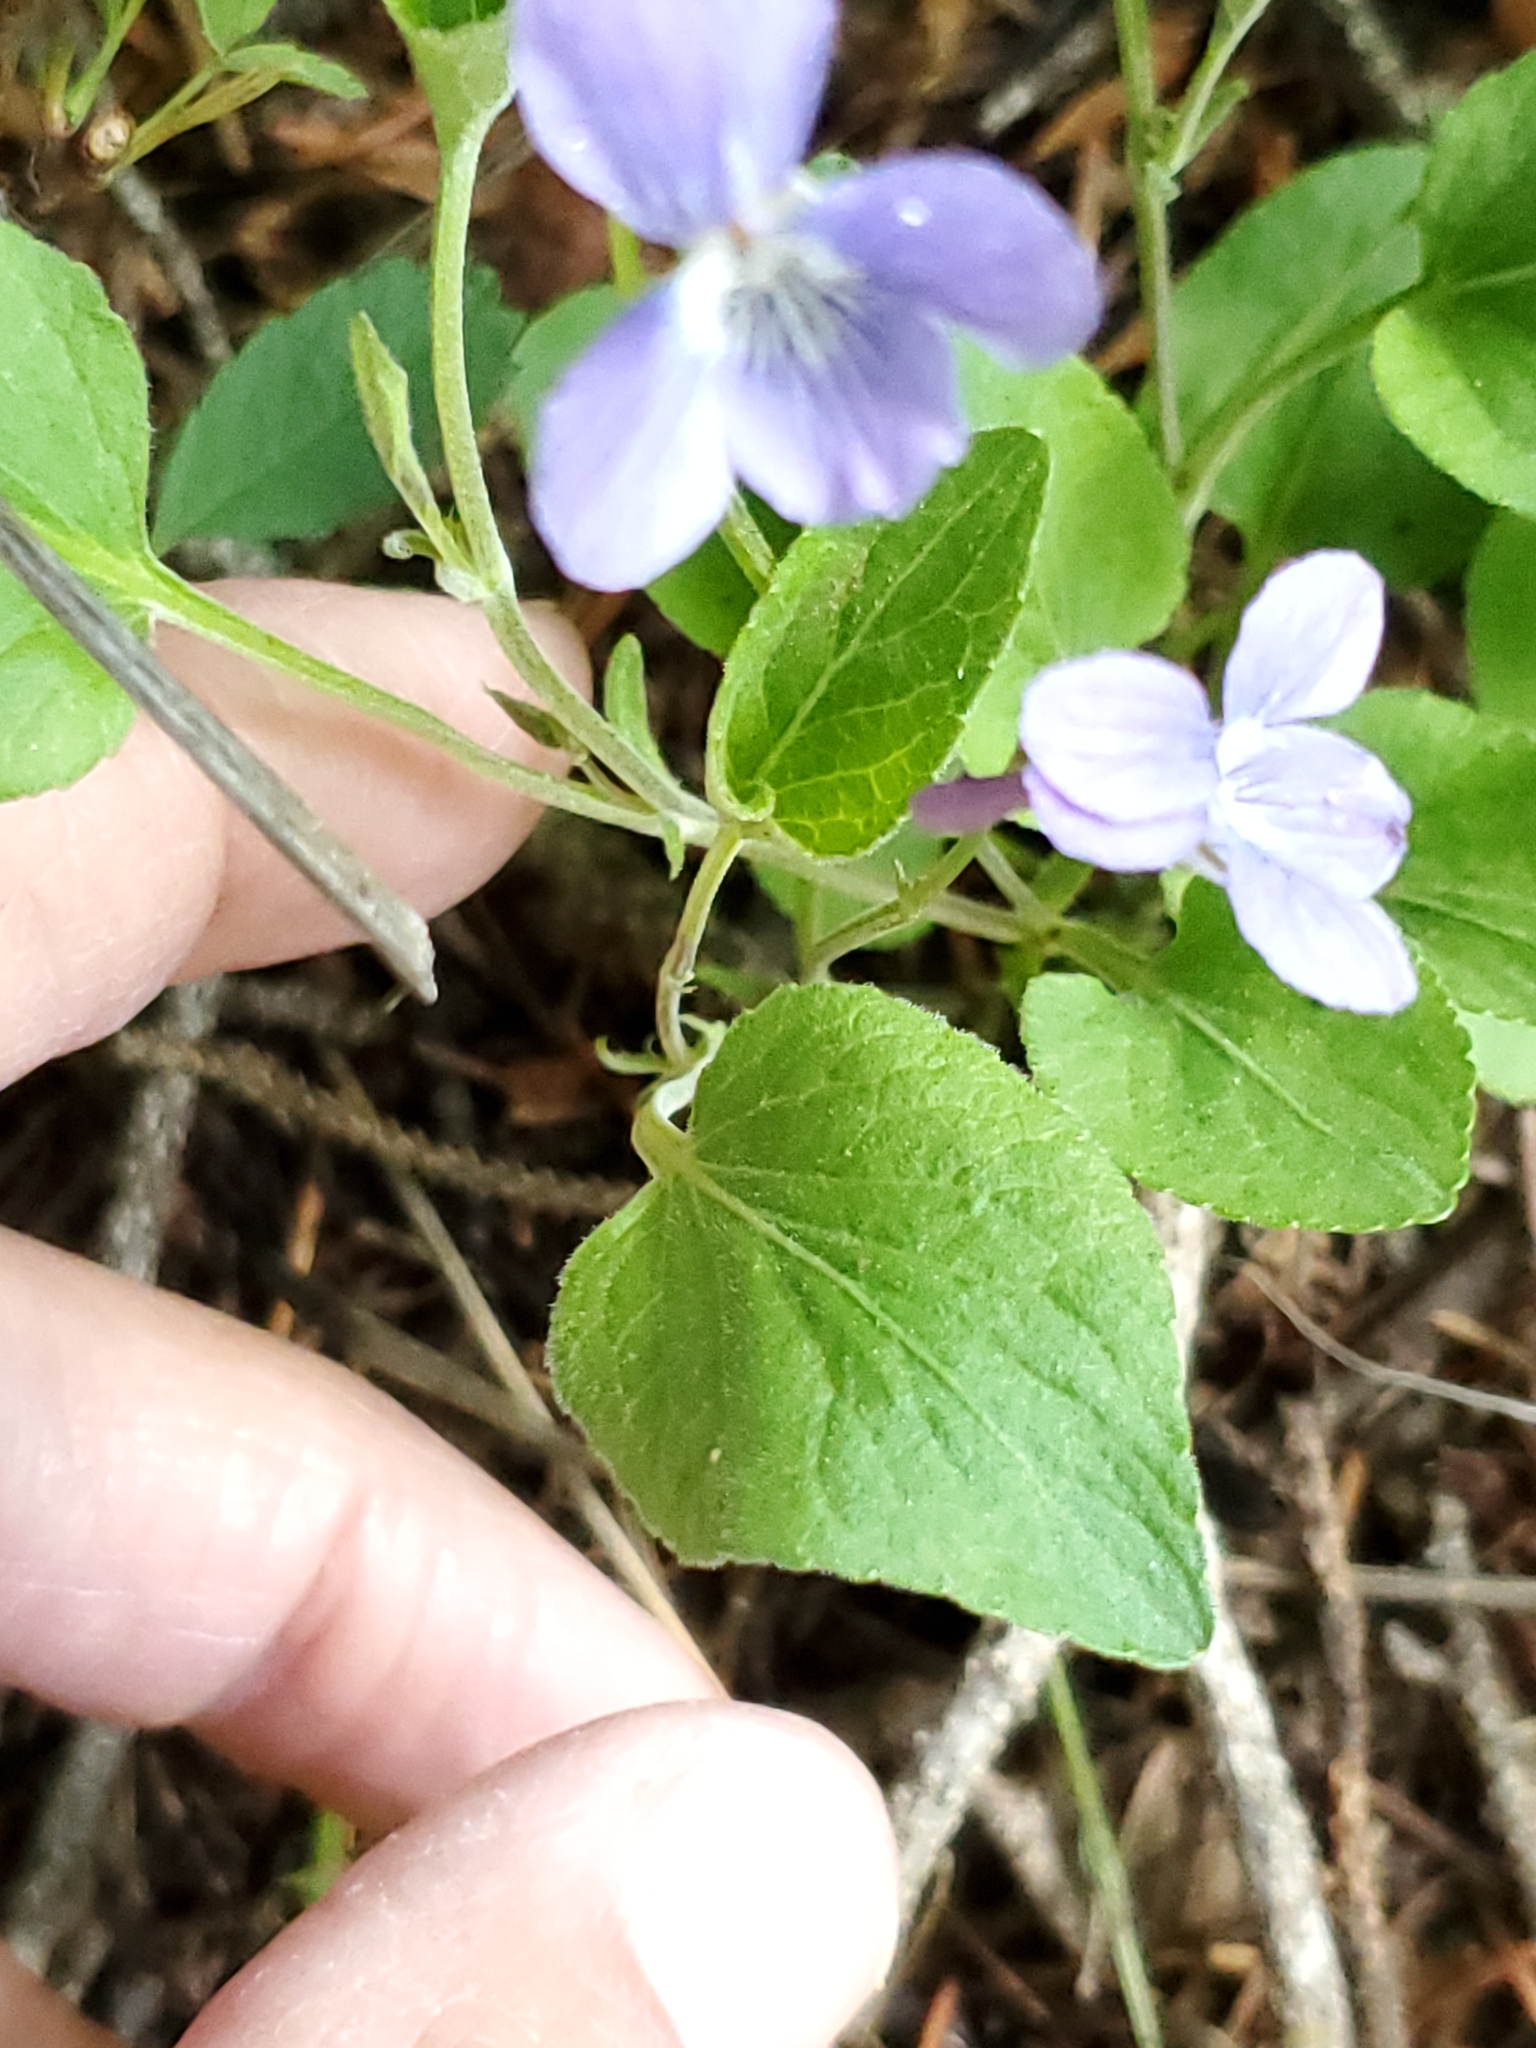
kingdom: Plantae
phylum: Tracheophyta
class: Magnoliopsida
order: Malpighiales
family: Violaceae
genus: Viola
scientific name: Viola adunca
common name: Sand violet
